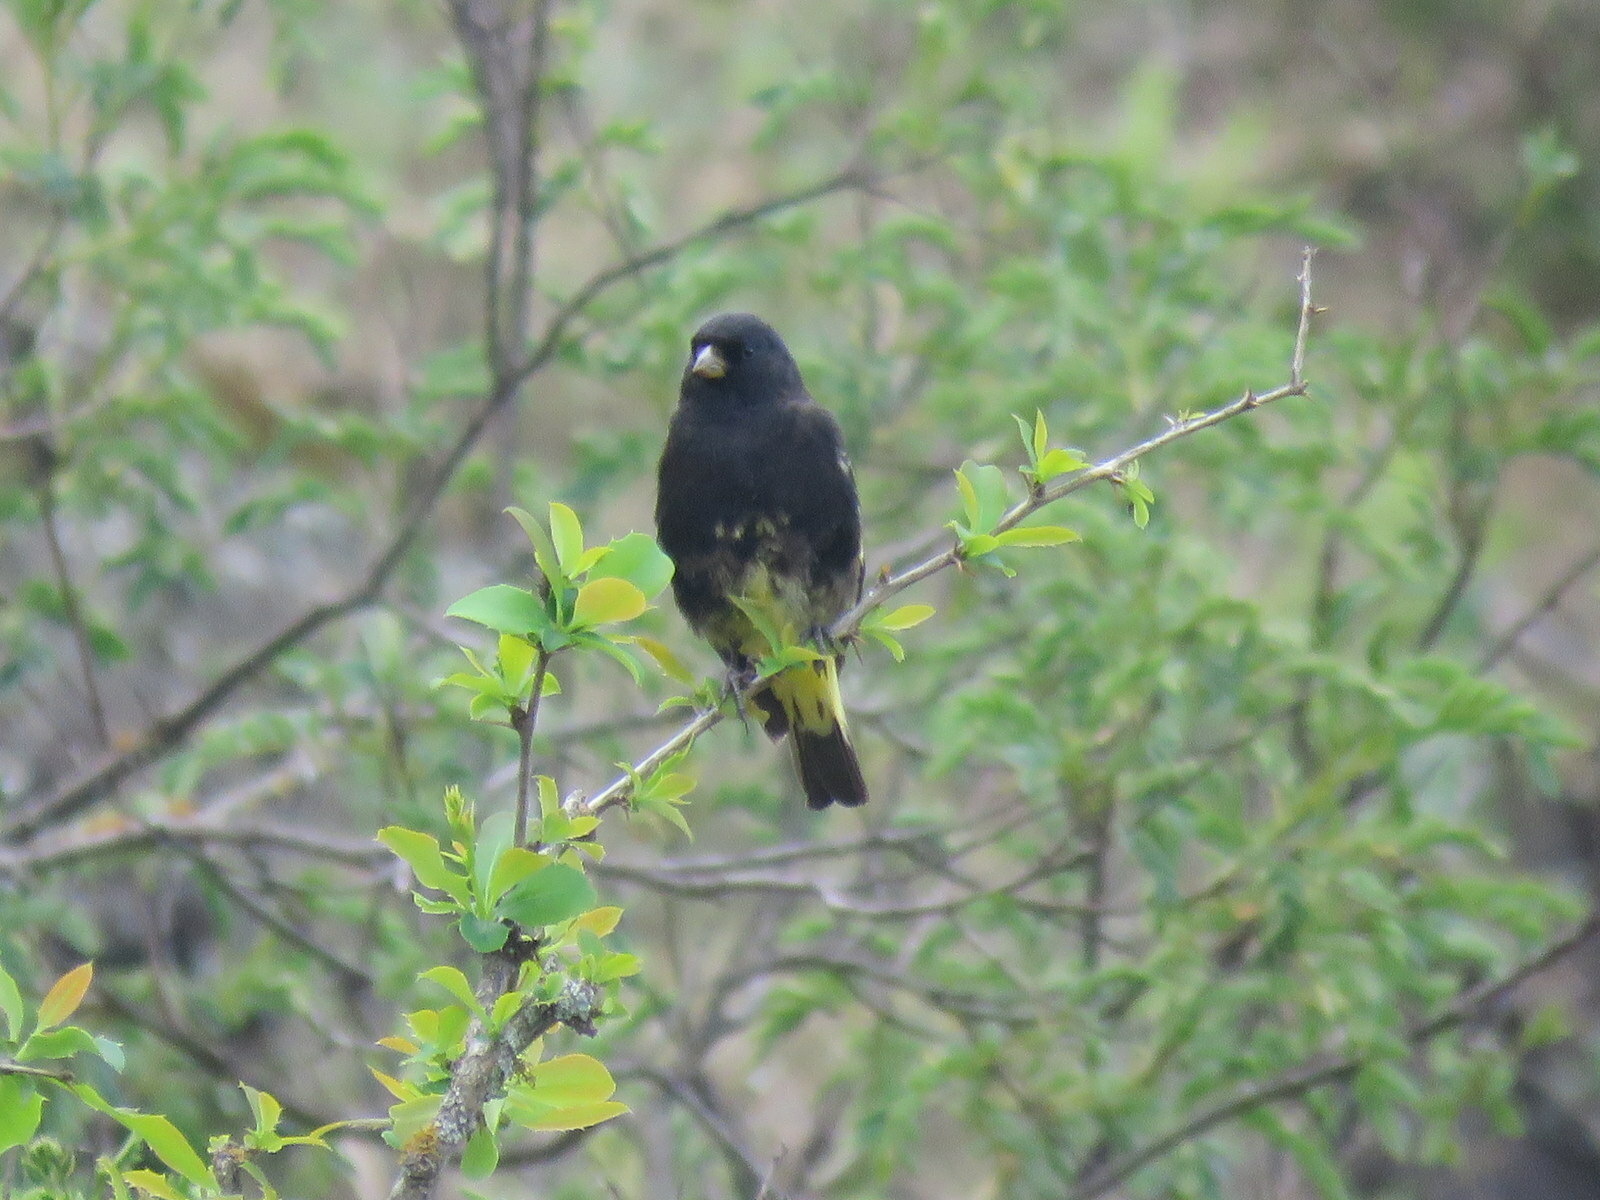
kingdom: Animalia
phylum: Chordata
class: Aves
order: Passeriformes
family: Fringillidae
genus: Spinus
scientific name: Spinus atratus
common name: Black siskin
